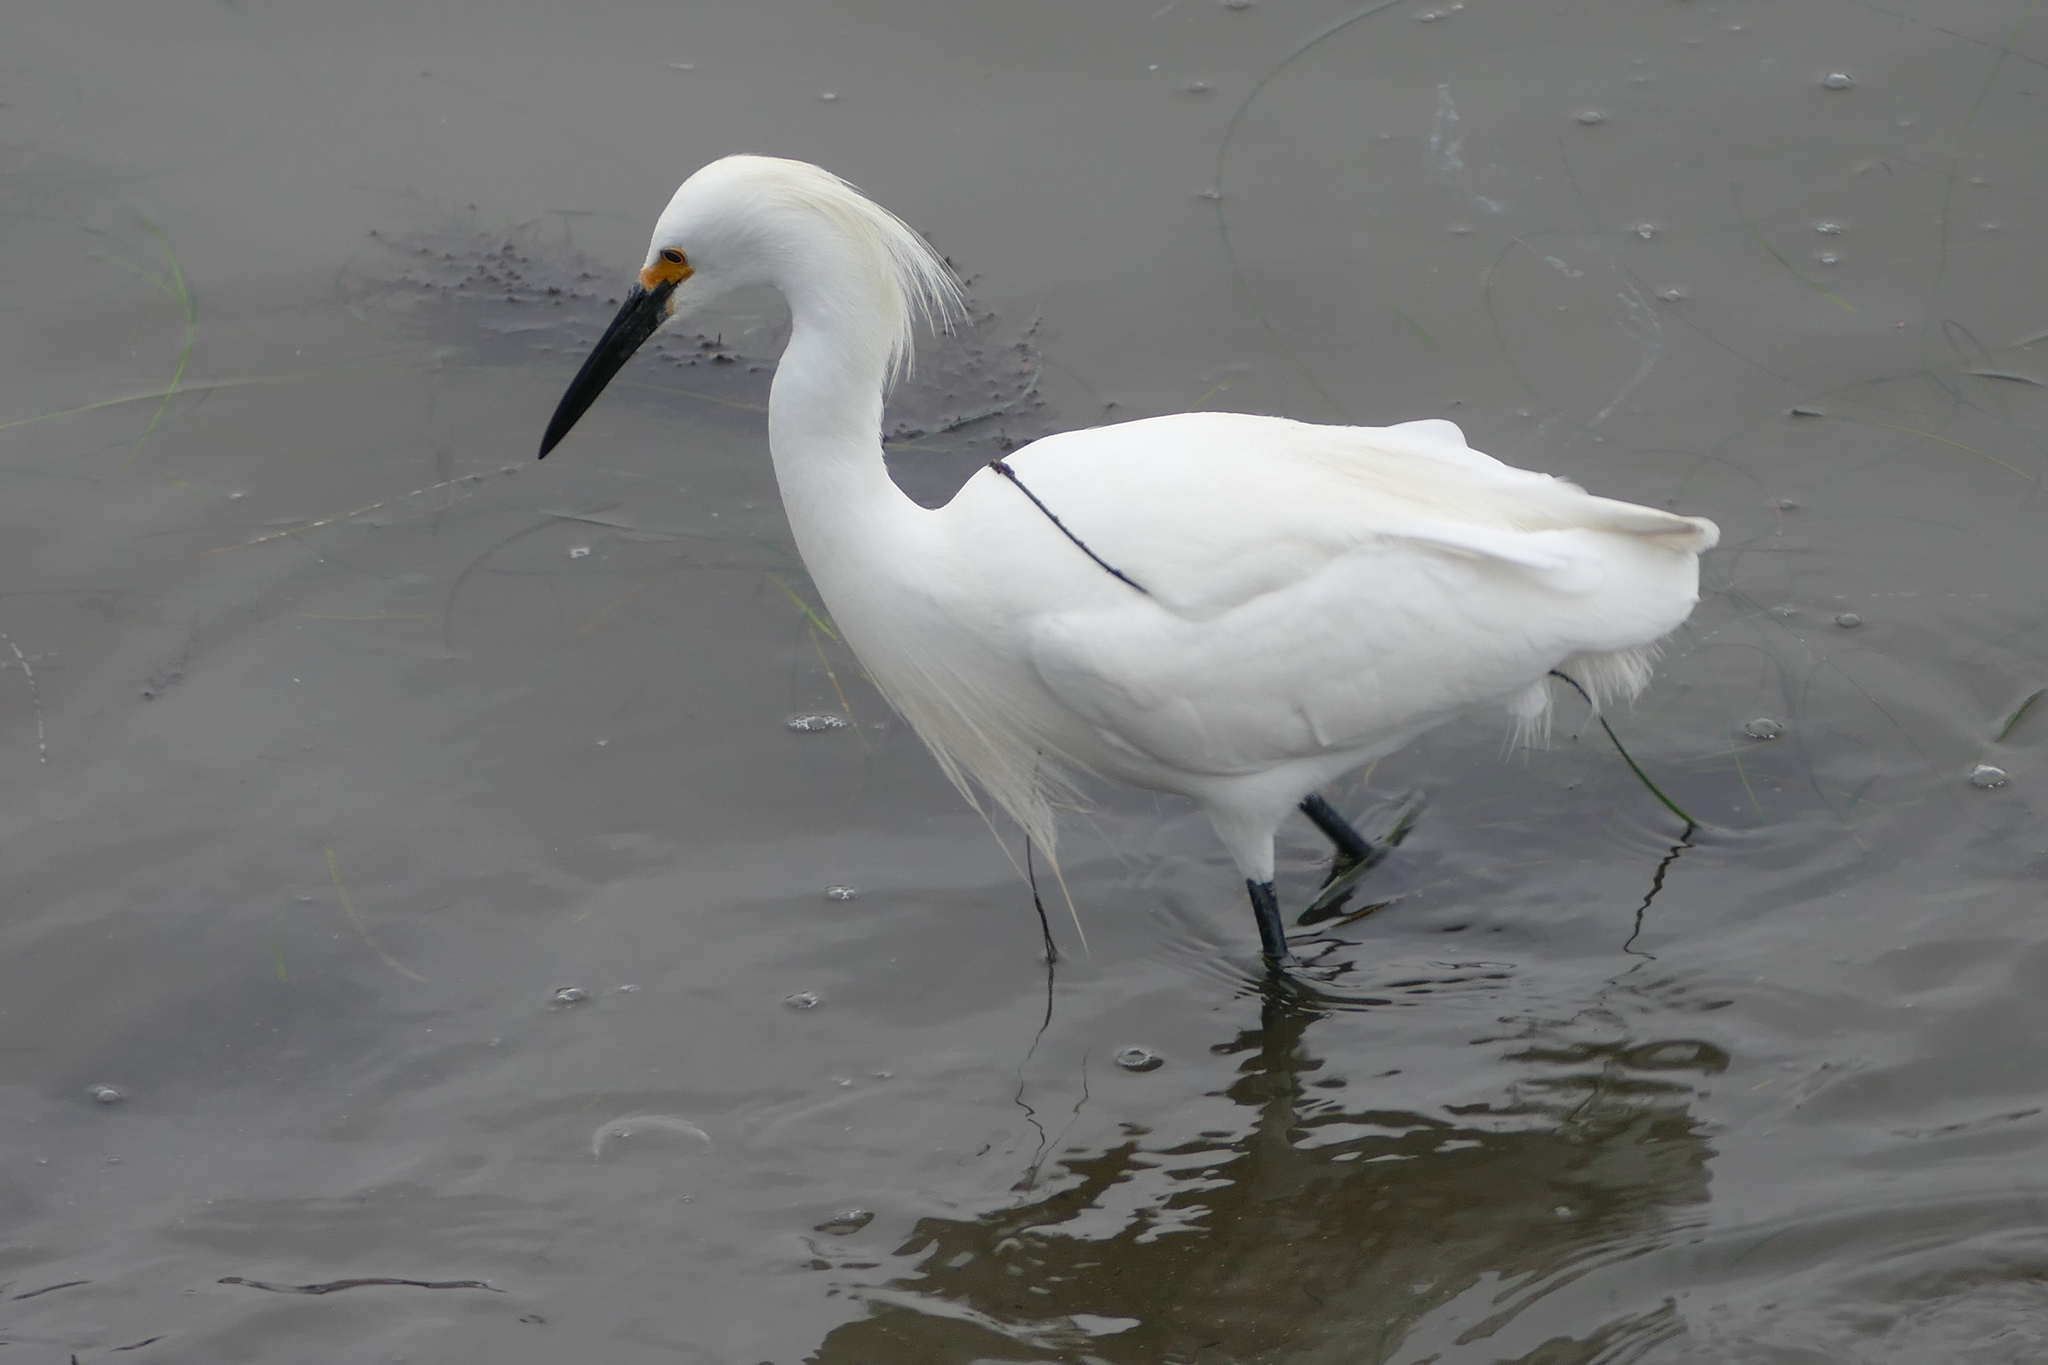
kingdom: Animalia
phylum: Chordata
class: Aves
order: Pelecaniformes
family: Ardeidae
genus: Egretta
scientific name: Egretta thula
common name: Snowy egret
